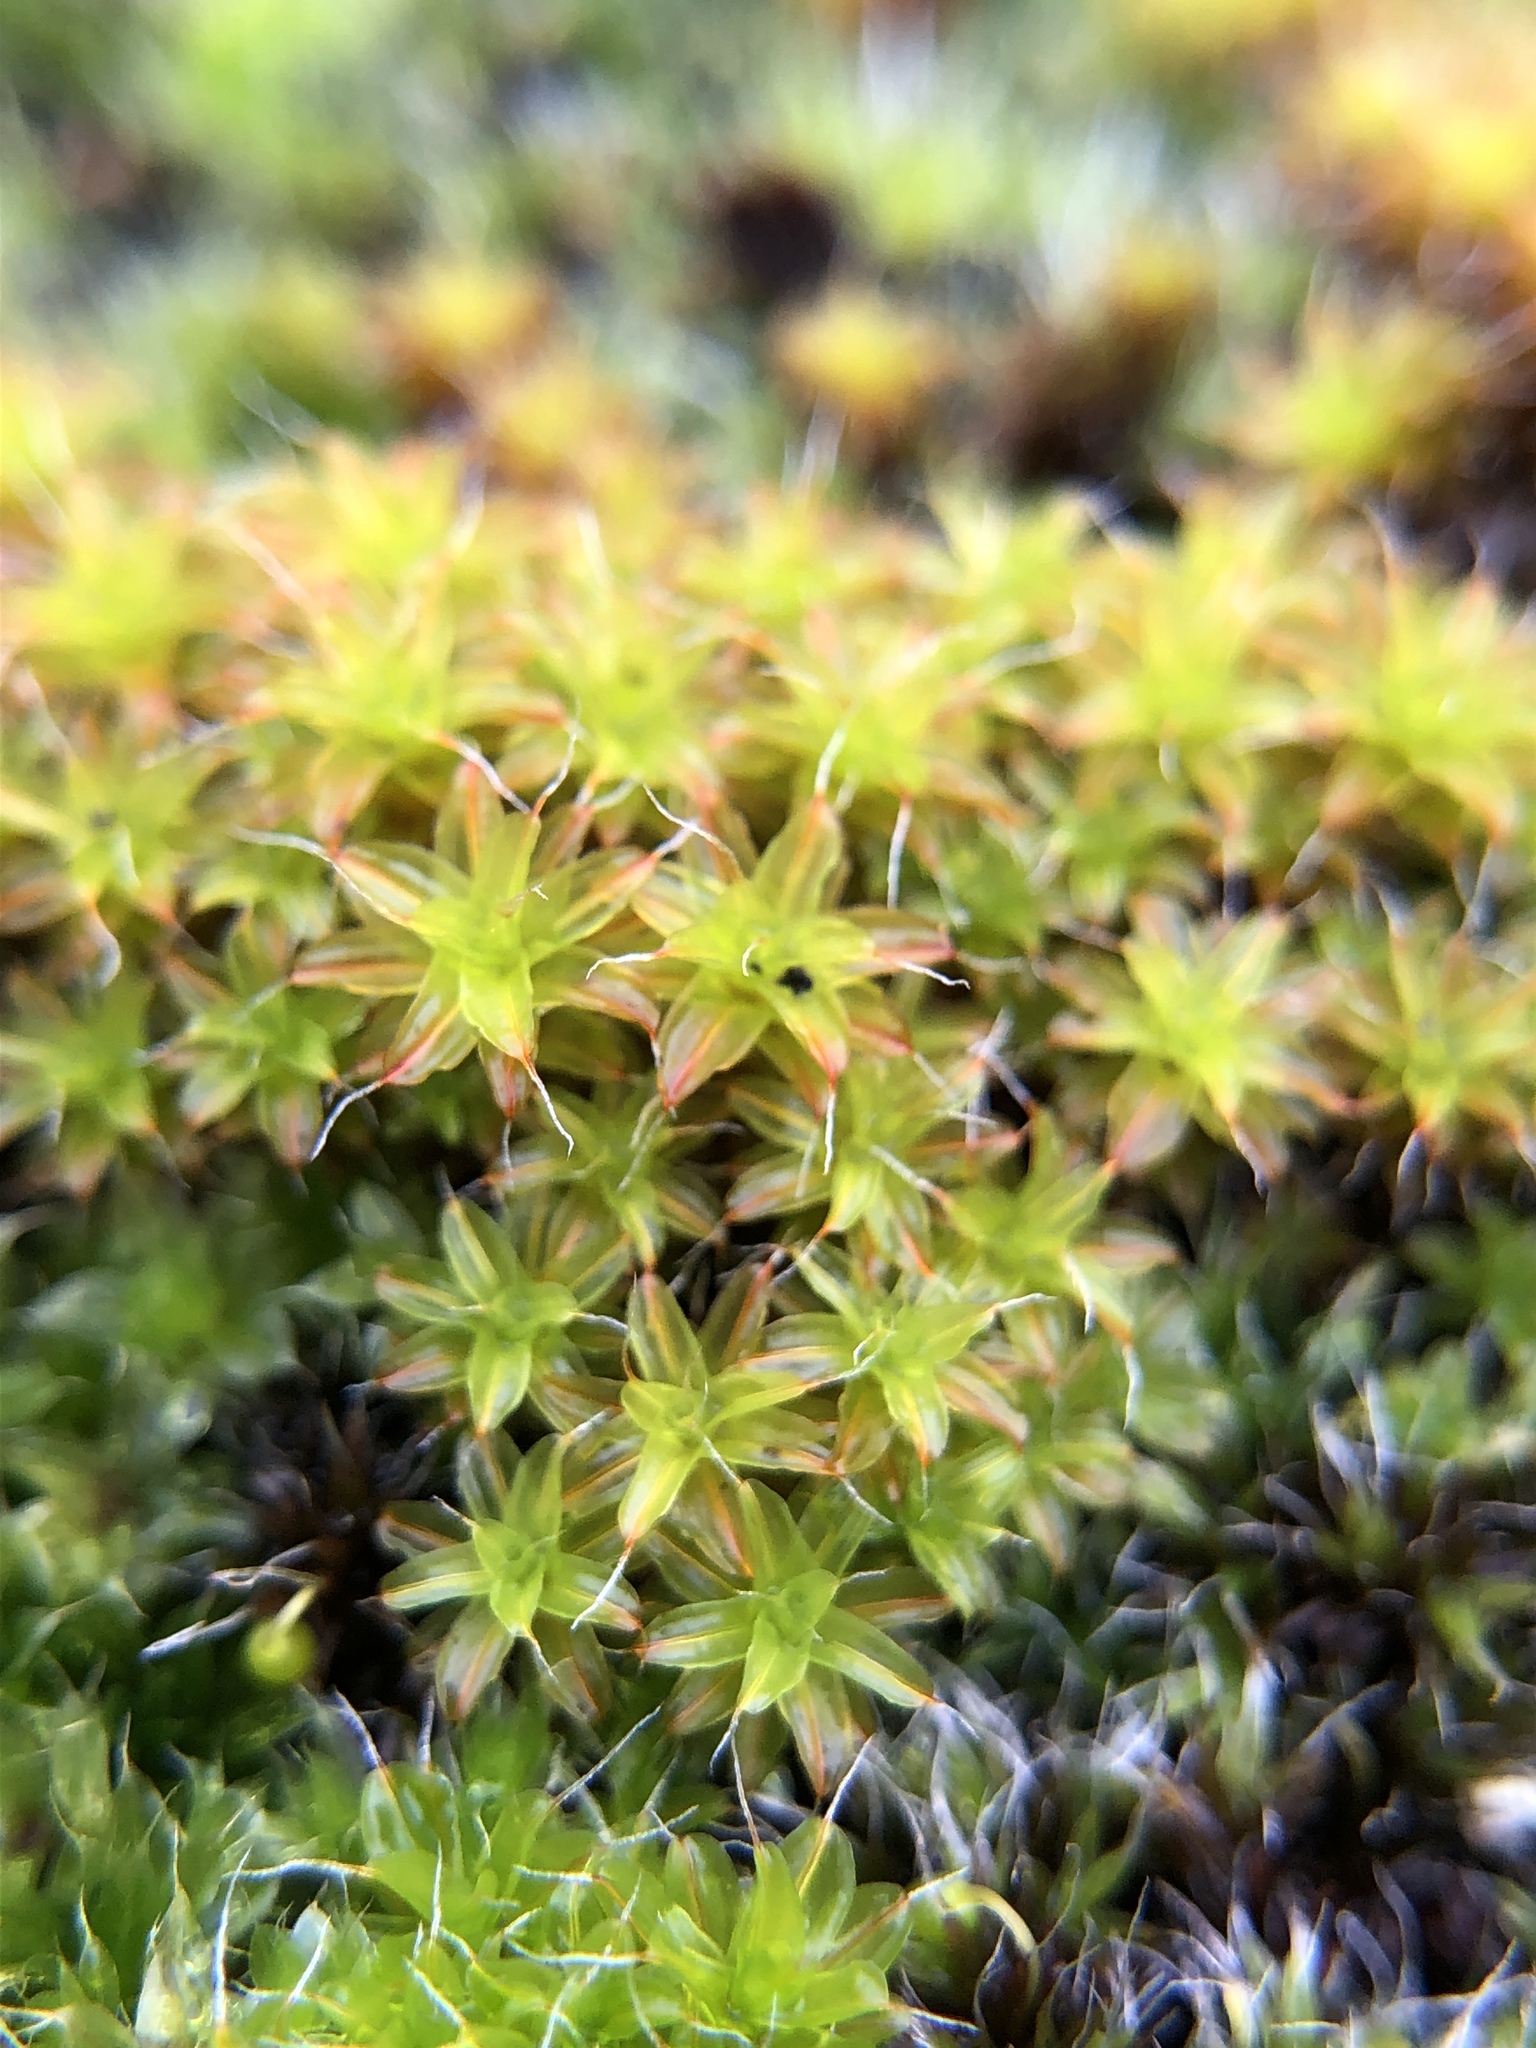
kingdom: Plantae
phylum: Bryophyta
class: Bryopsida
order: Pottiales
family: Pottiaceae
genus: Syntrichia
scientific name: Syntrichia ruralis
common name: Sidewalk screw moss
